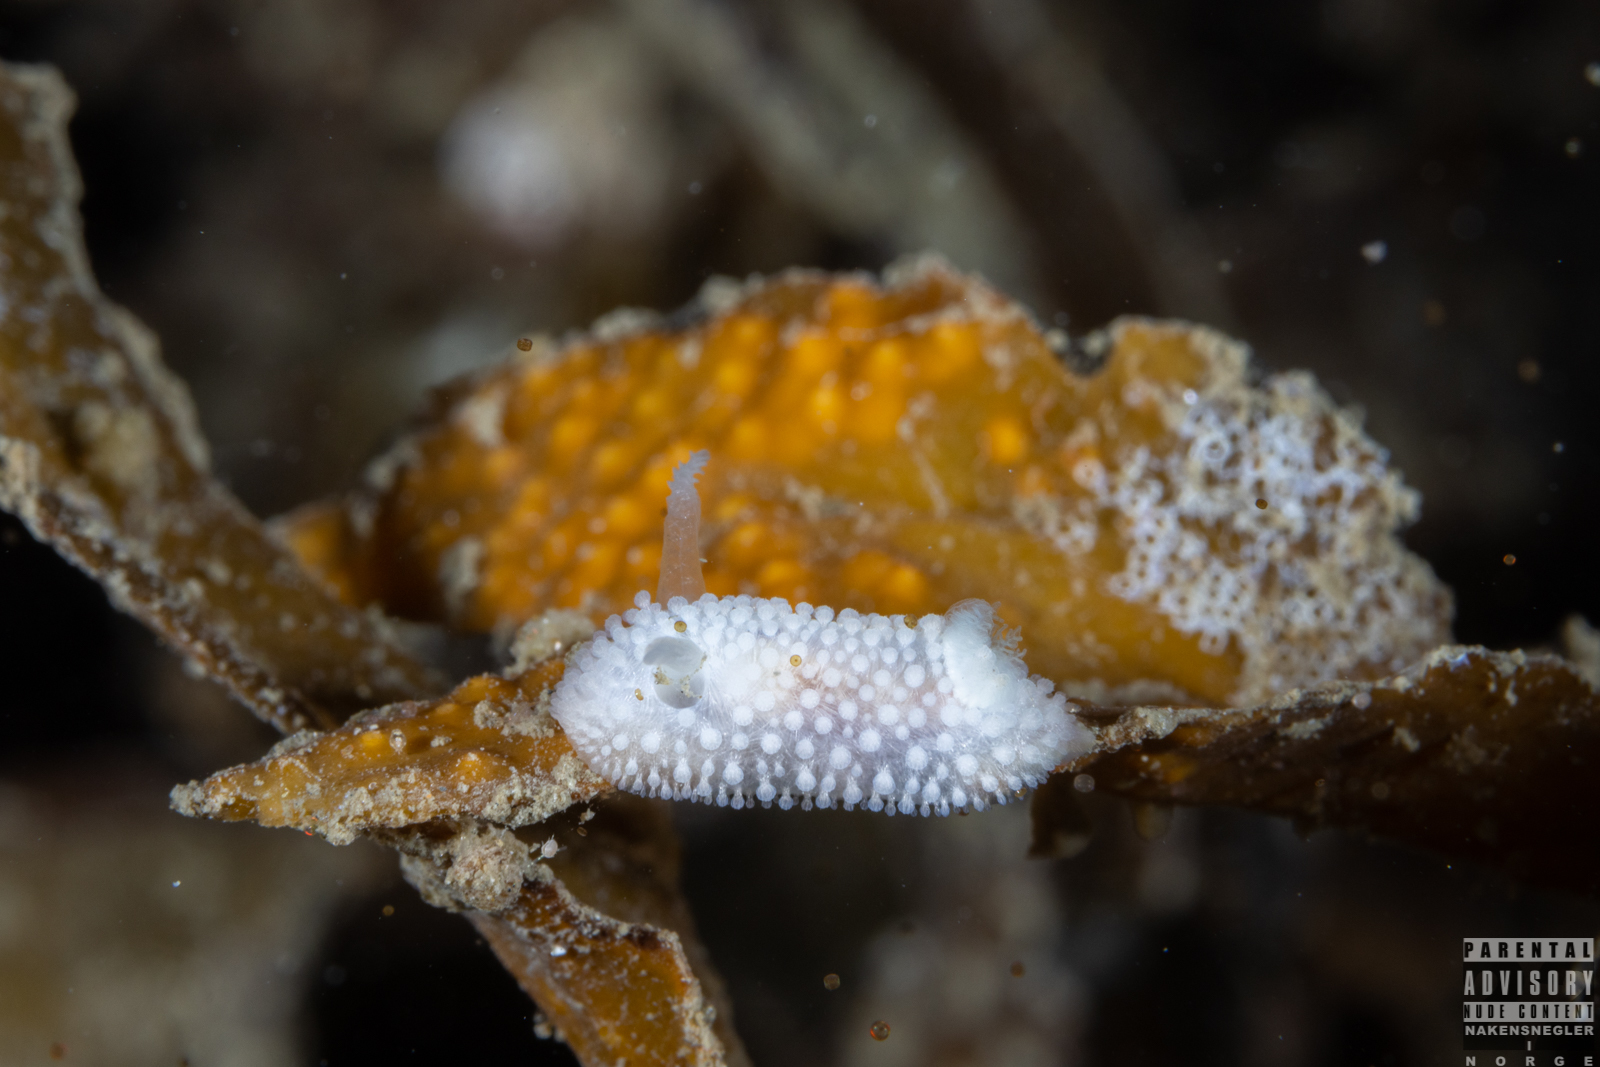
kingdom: Animalia
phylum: Mollusca
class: Gastropoda
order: Nudibranchia
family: Onchidorididae
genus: Onchidoris
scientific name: Onchidoris muricata
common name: Rough doris
